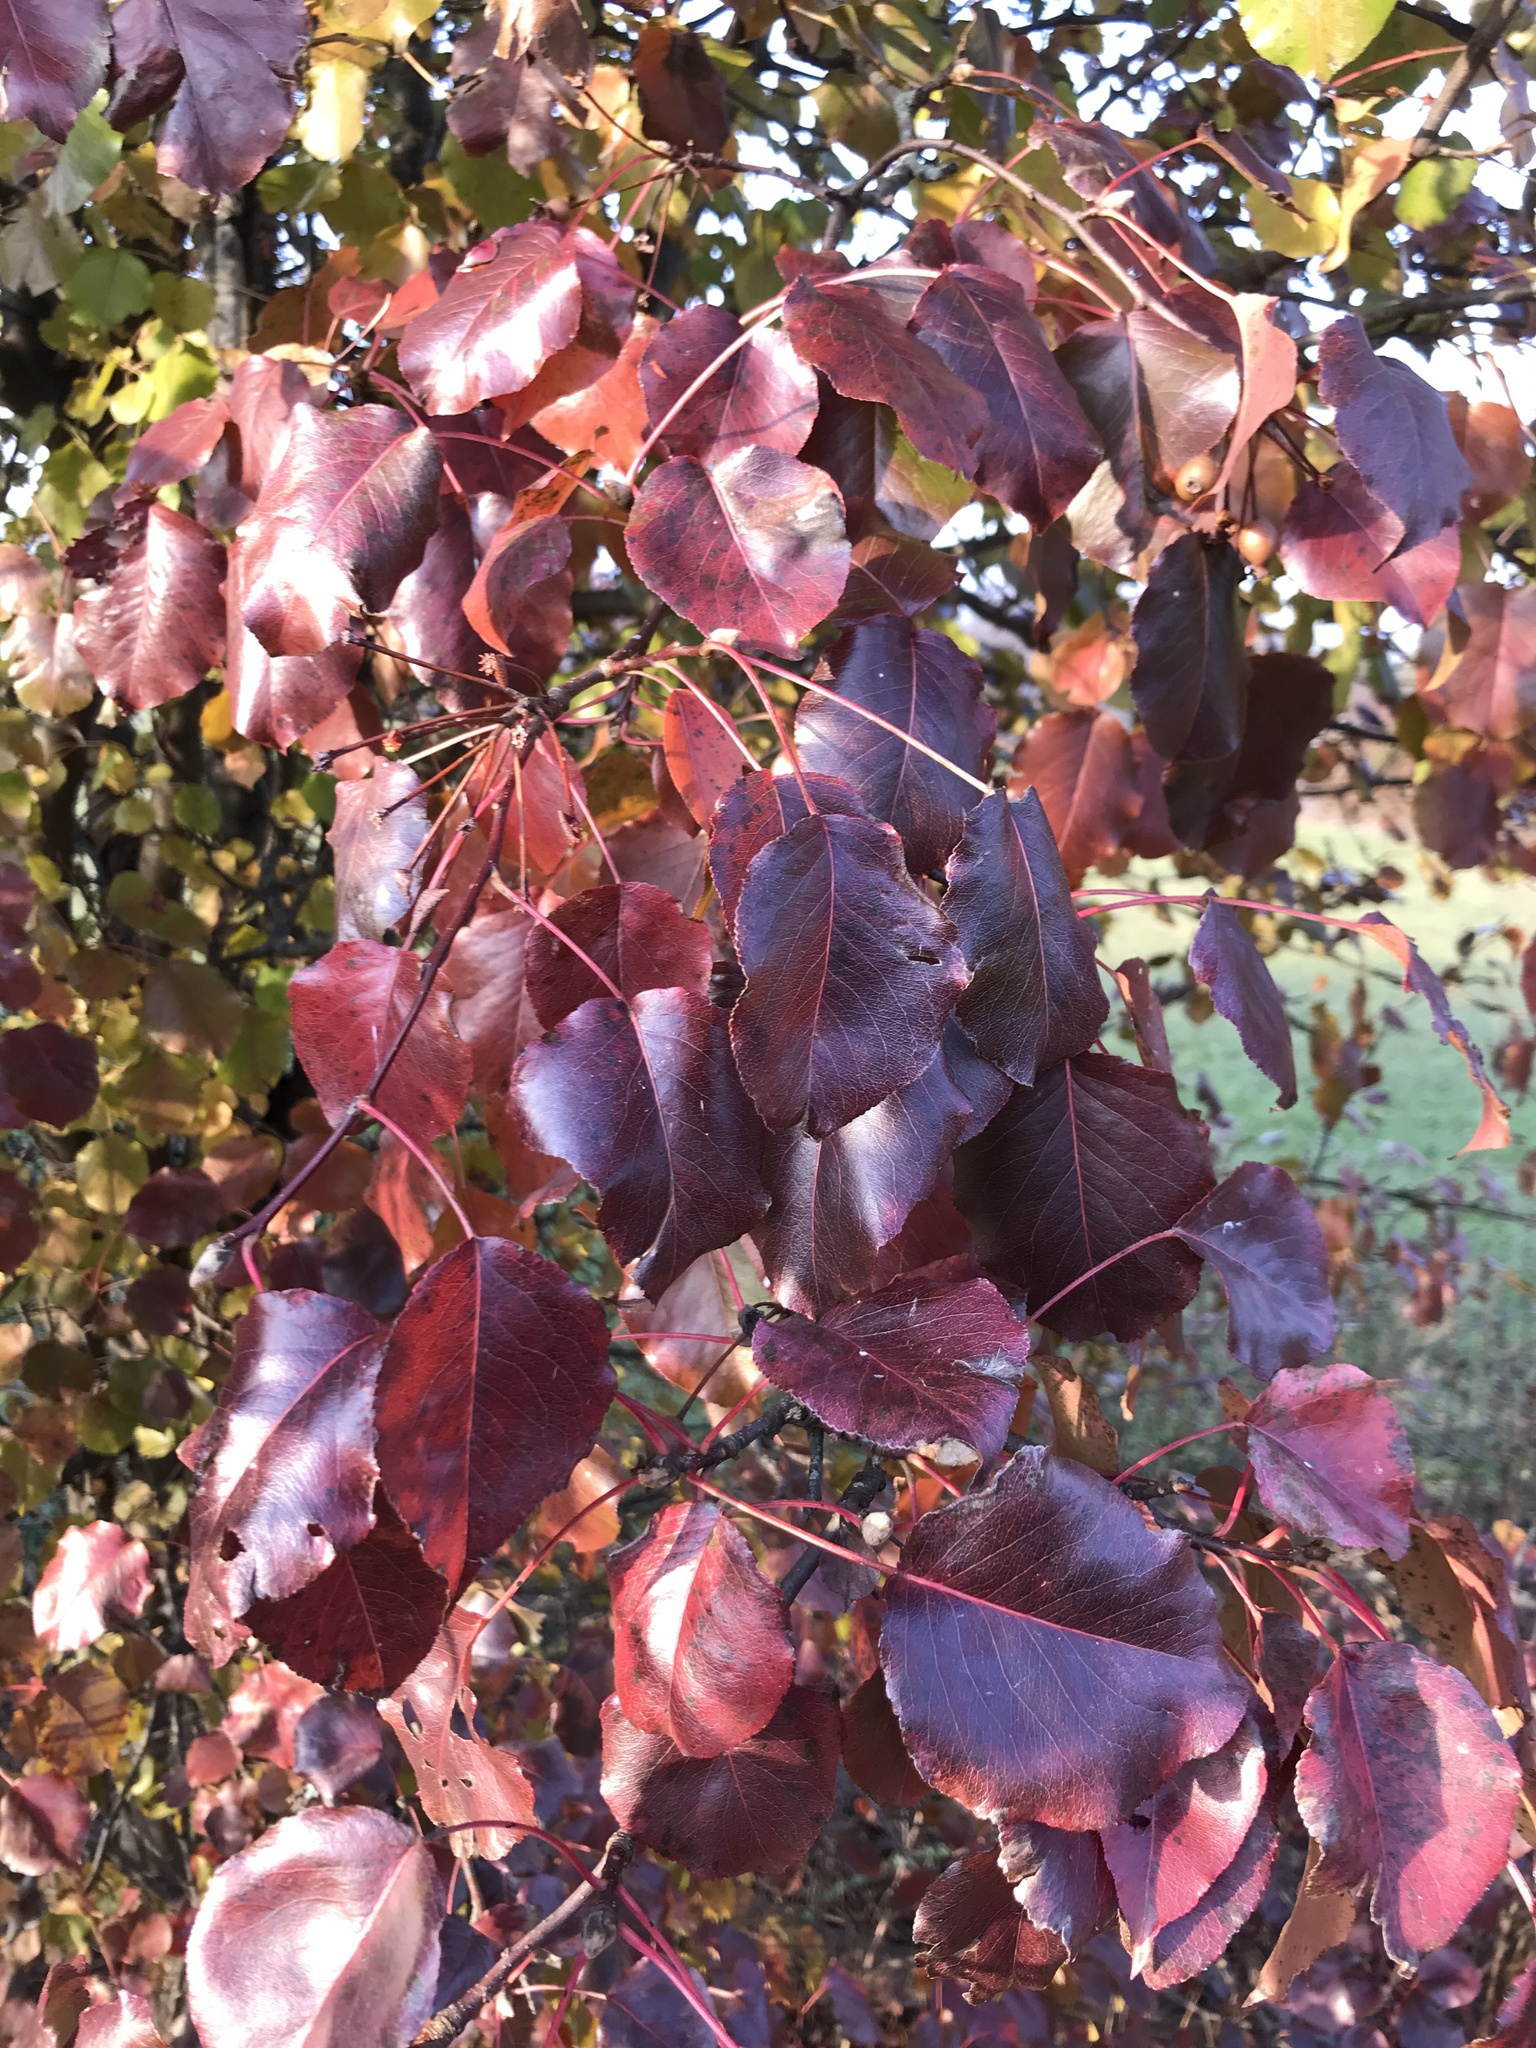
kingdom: Plantae
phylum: Tracheophyta
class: Magnoliopsida
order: Rosales
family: Rosaceae
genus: Pyrus
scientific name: Pyrus calleryana
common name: Callery pear
